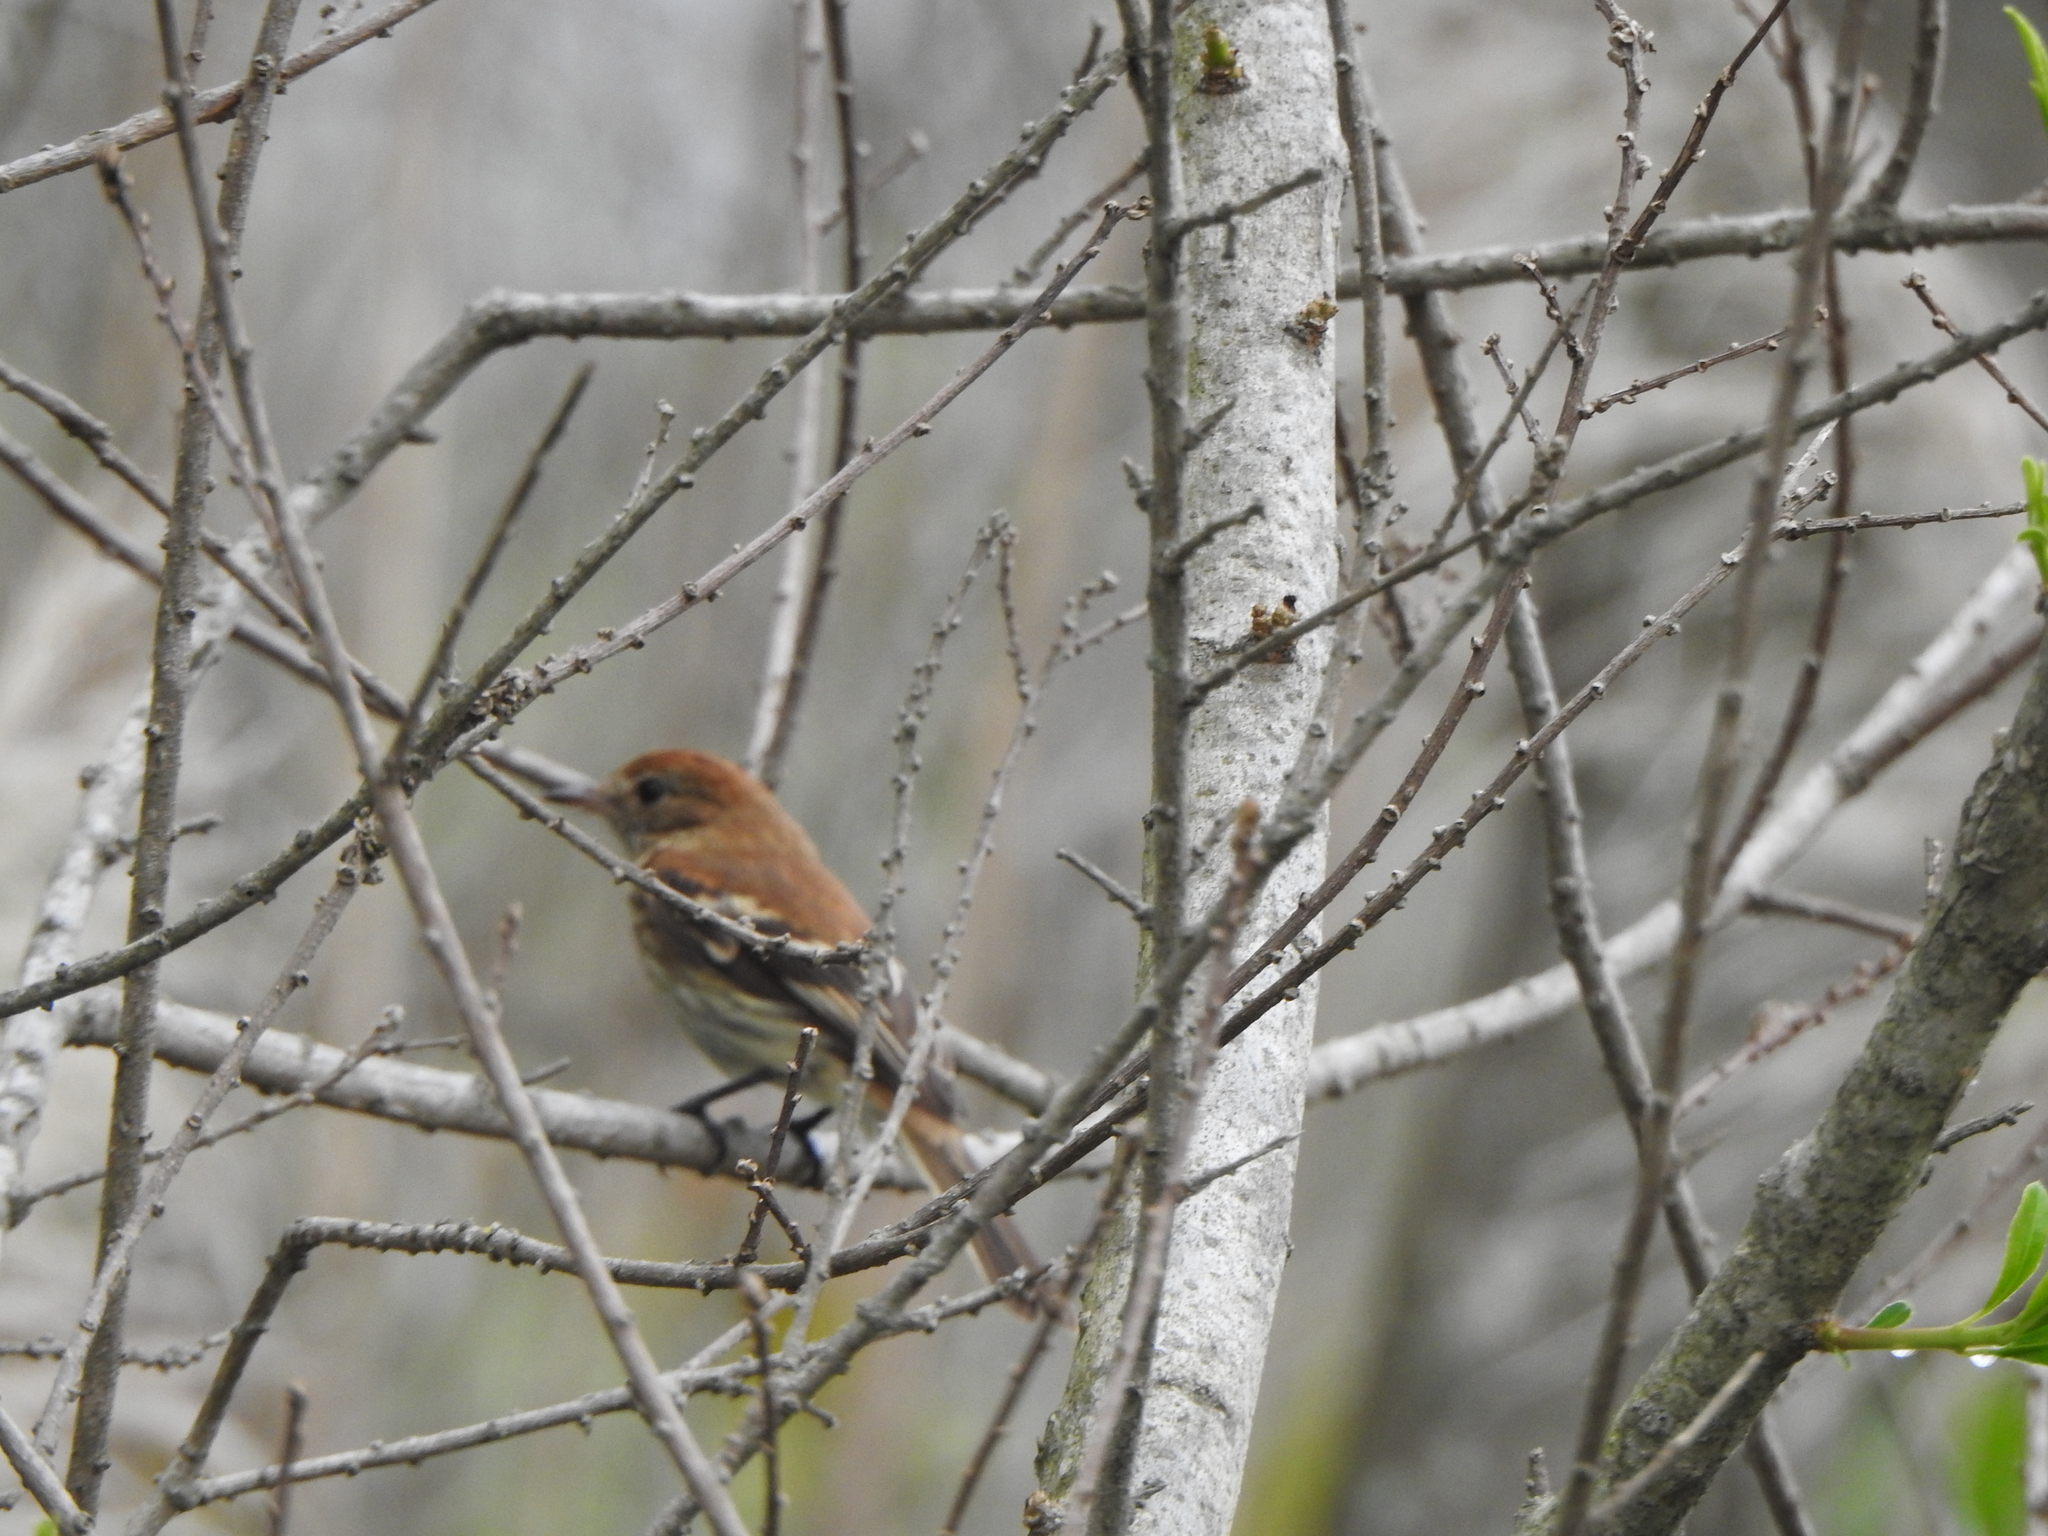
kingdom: Animalia
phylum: Chordata
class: Aves
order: Passeriformes
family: Tyrannidae
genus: Myiophobus
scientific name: Myiophobus fasciatus
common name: Bran-colored flycatcher
